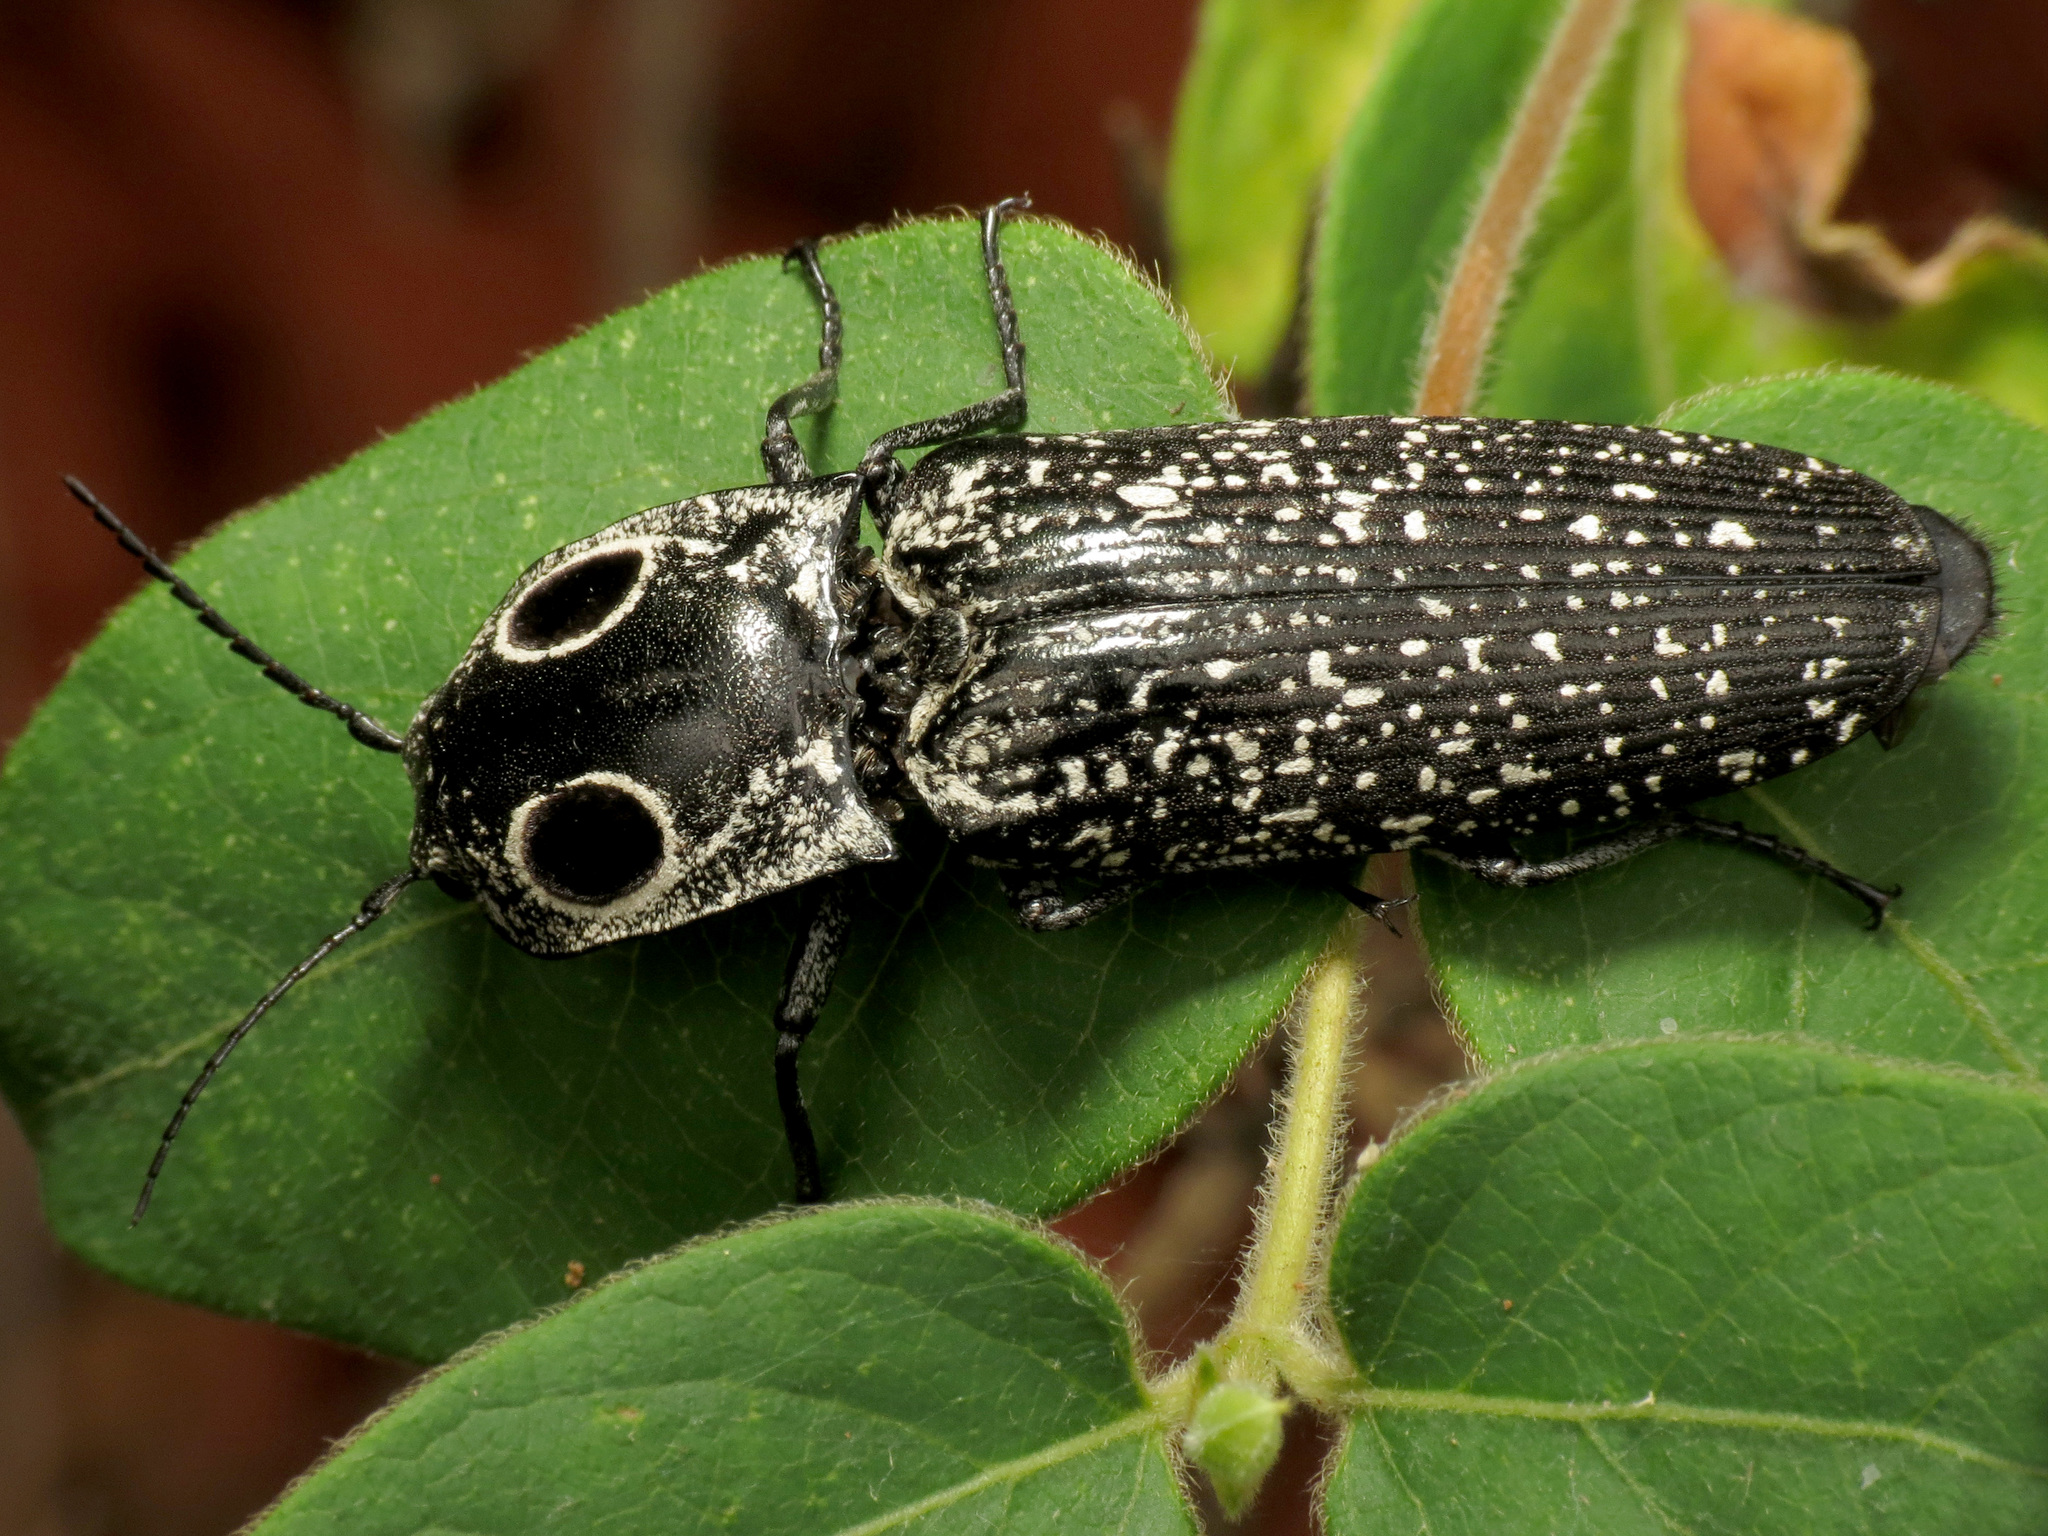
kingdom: Animalia
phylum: Arthropoda
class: Insecta
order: Coleoptera
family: Elateridae
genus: Alaus
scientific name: Alaus oculatus
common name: Eastern eyed click beetle
